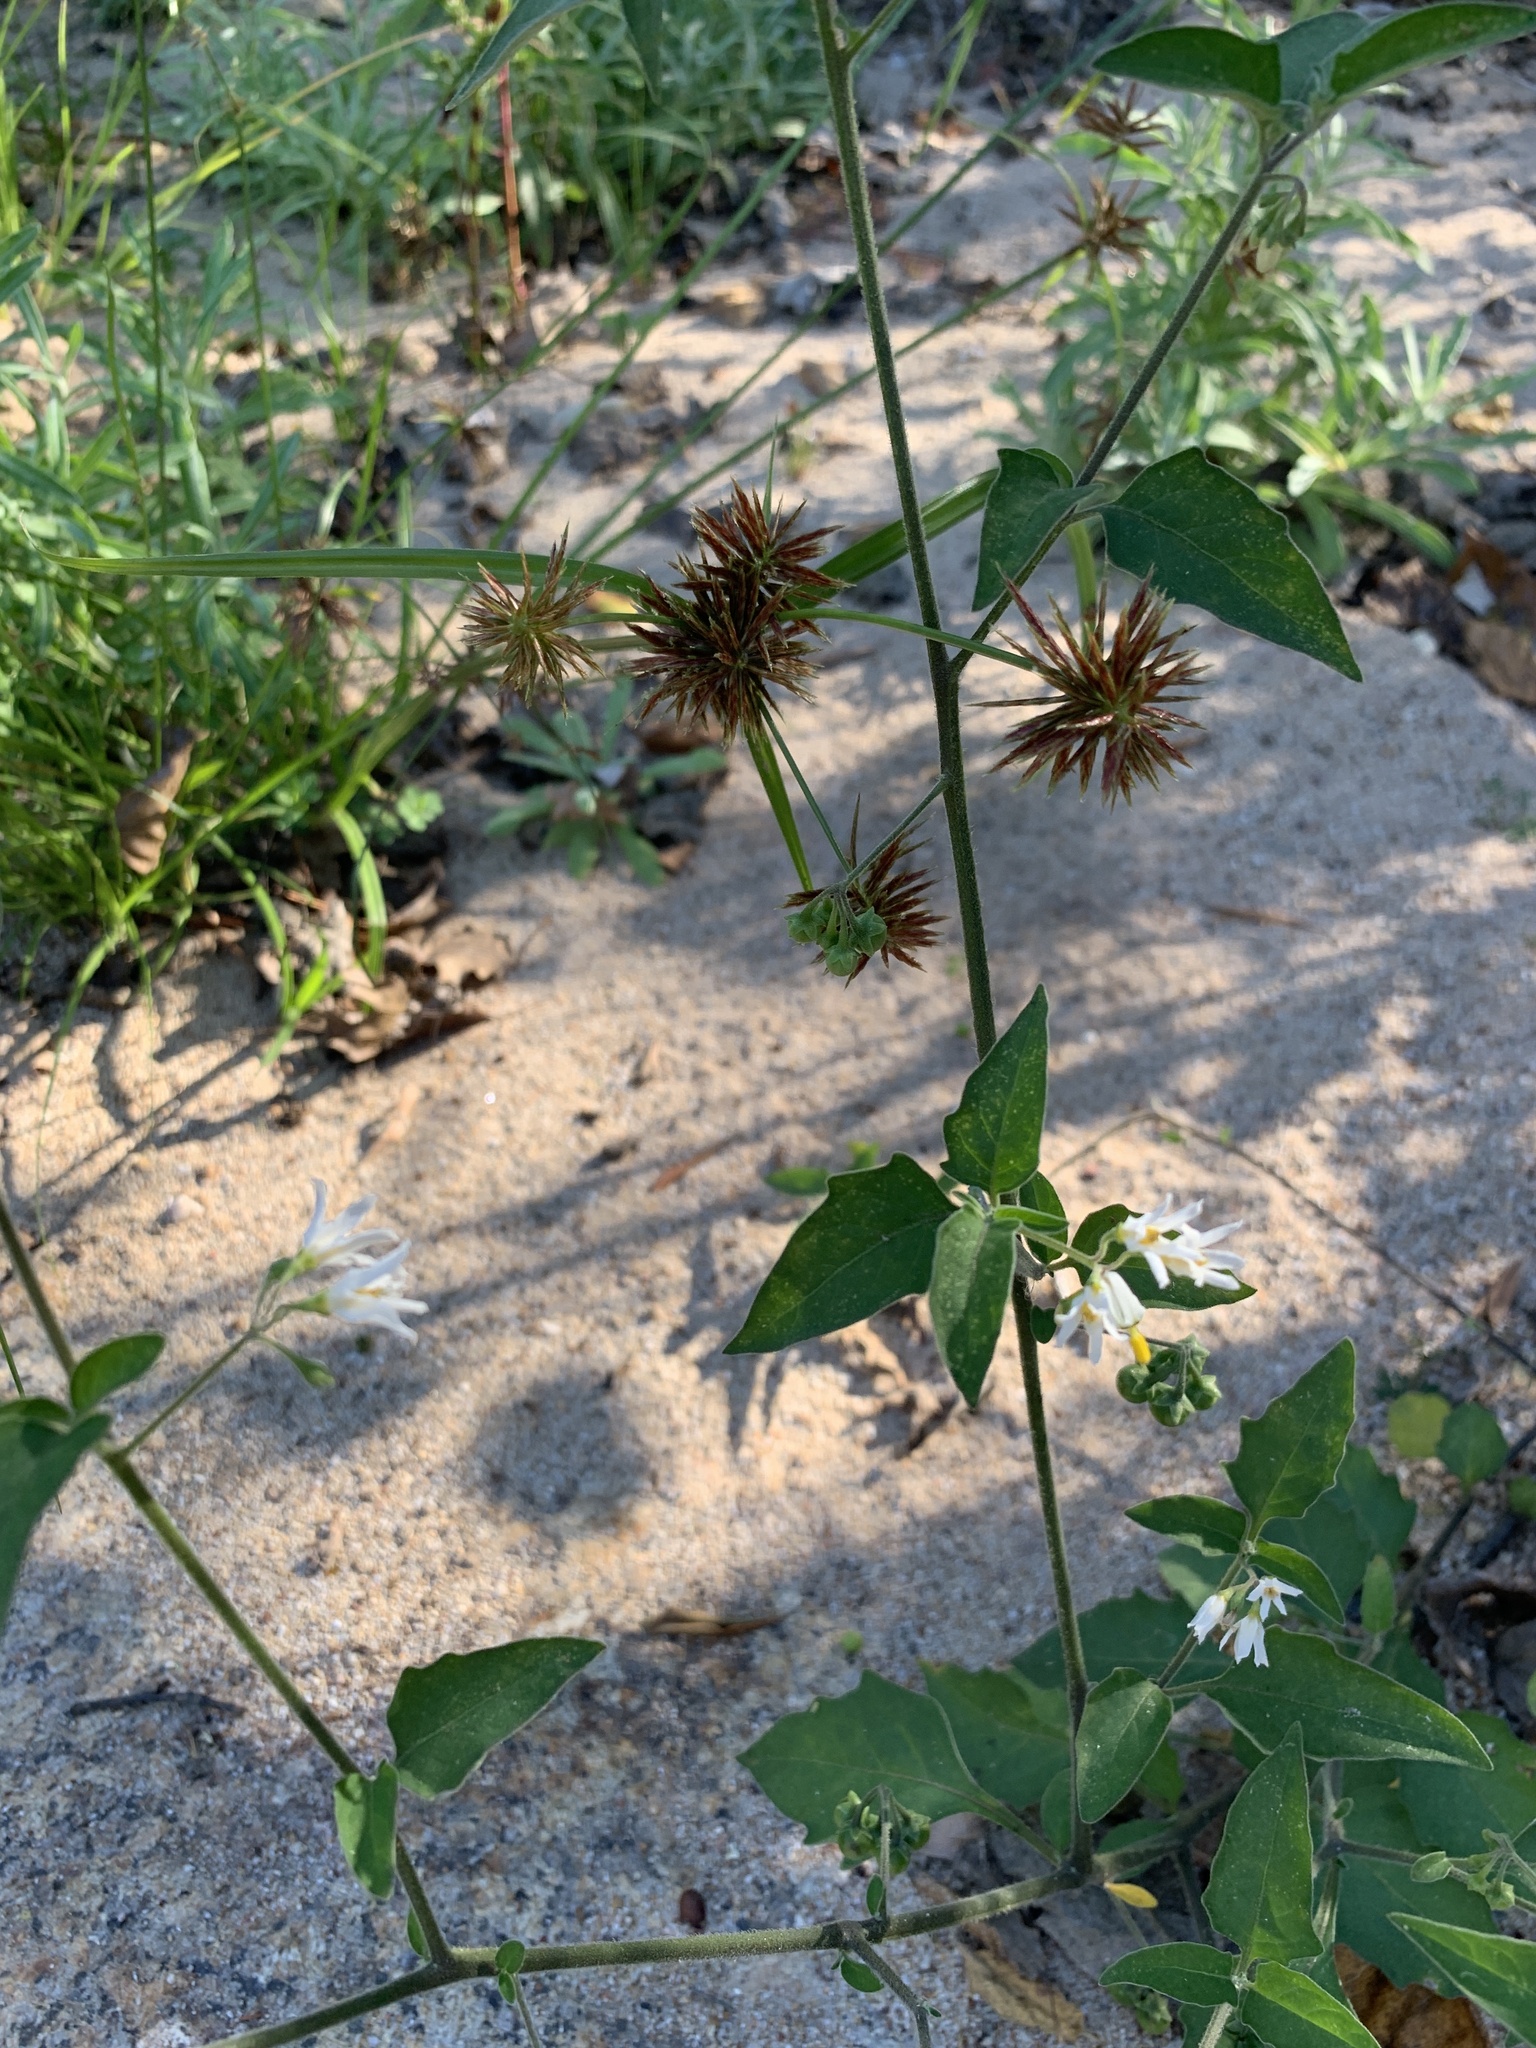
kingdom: Plantae
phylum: Tracheophyta
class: Magnoliopsida
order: Solanales
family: Solanaceae
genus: Solanum
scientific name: Solanum chenopodioides
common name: Tall nightshade
